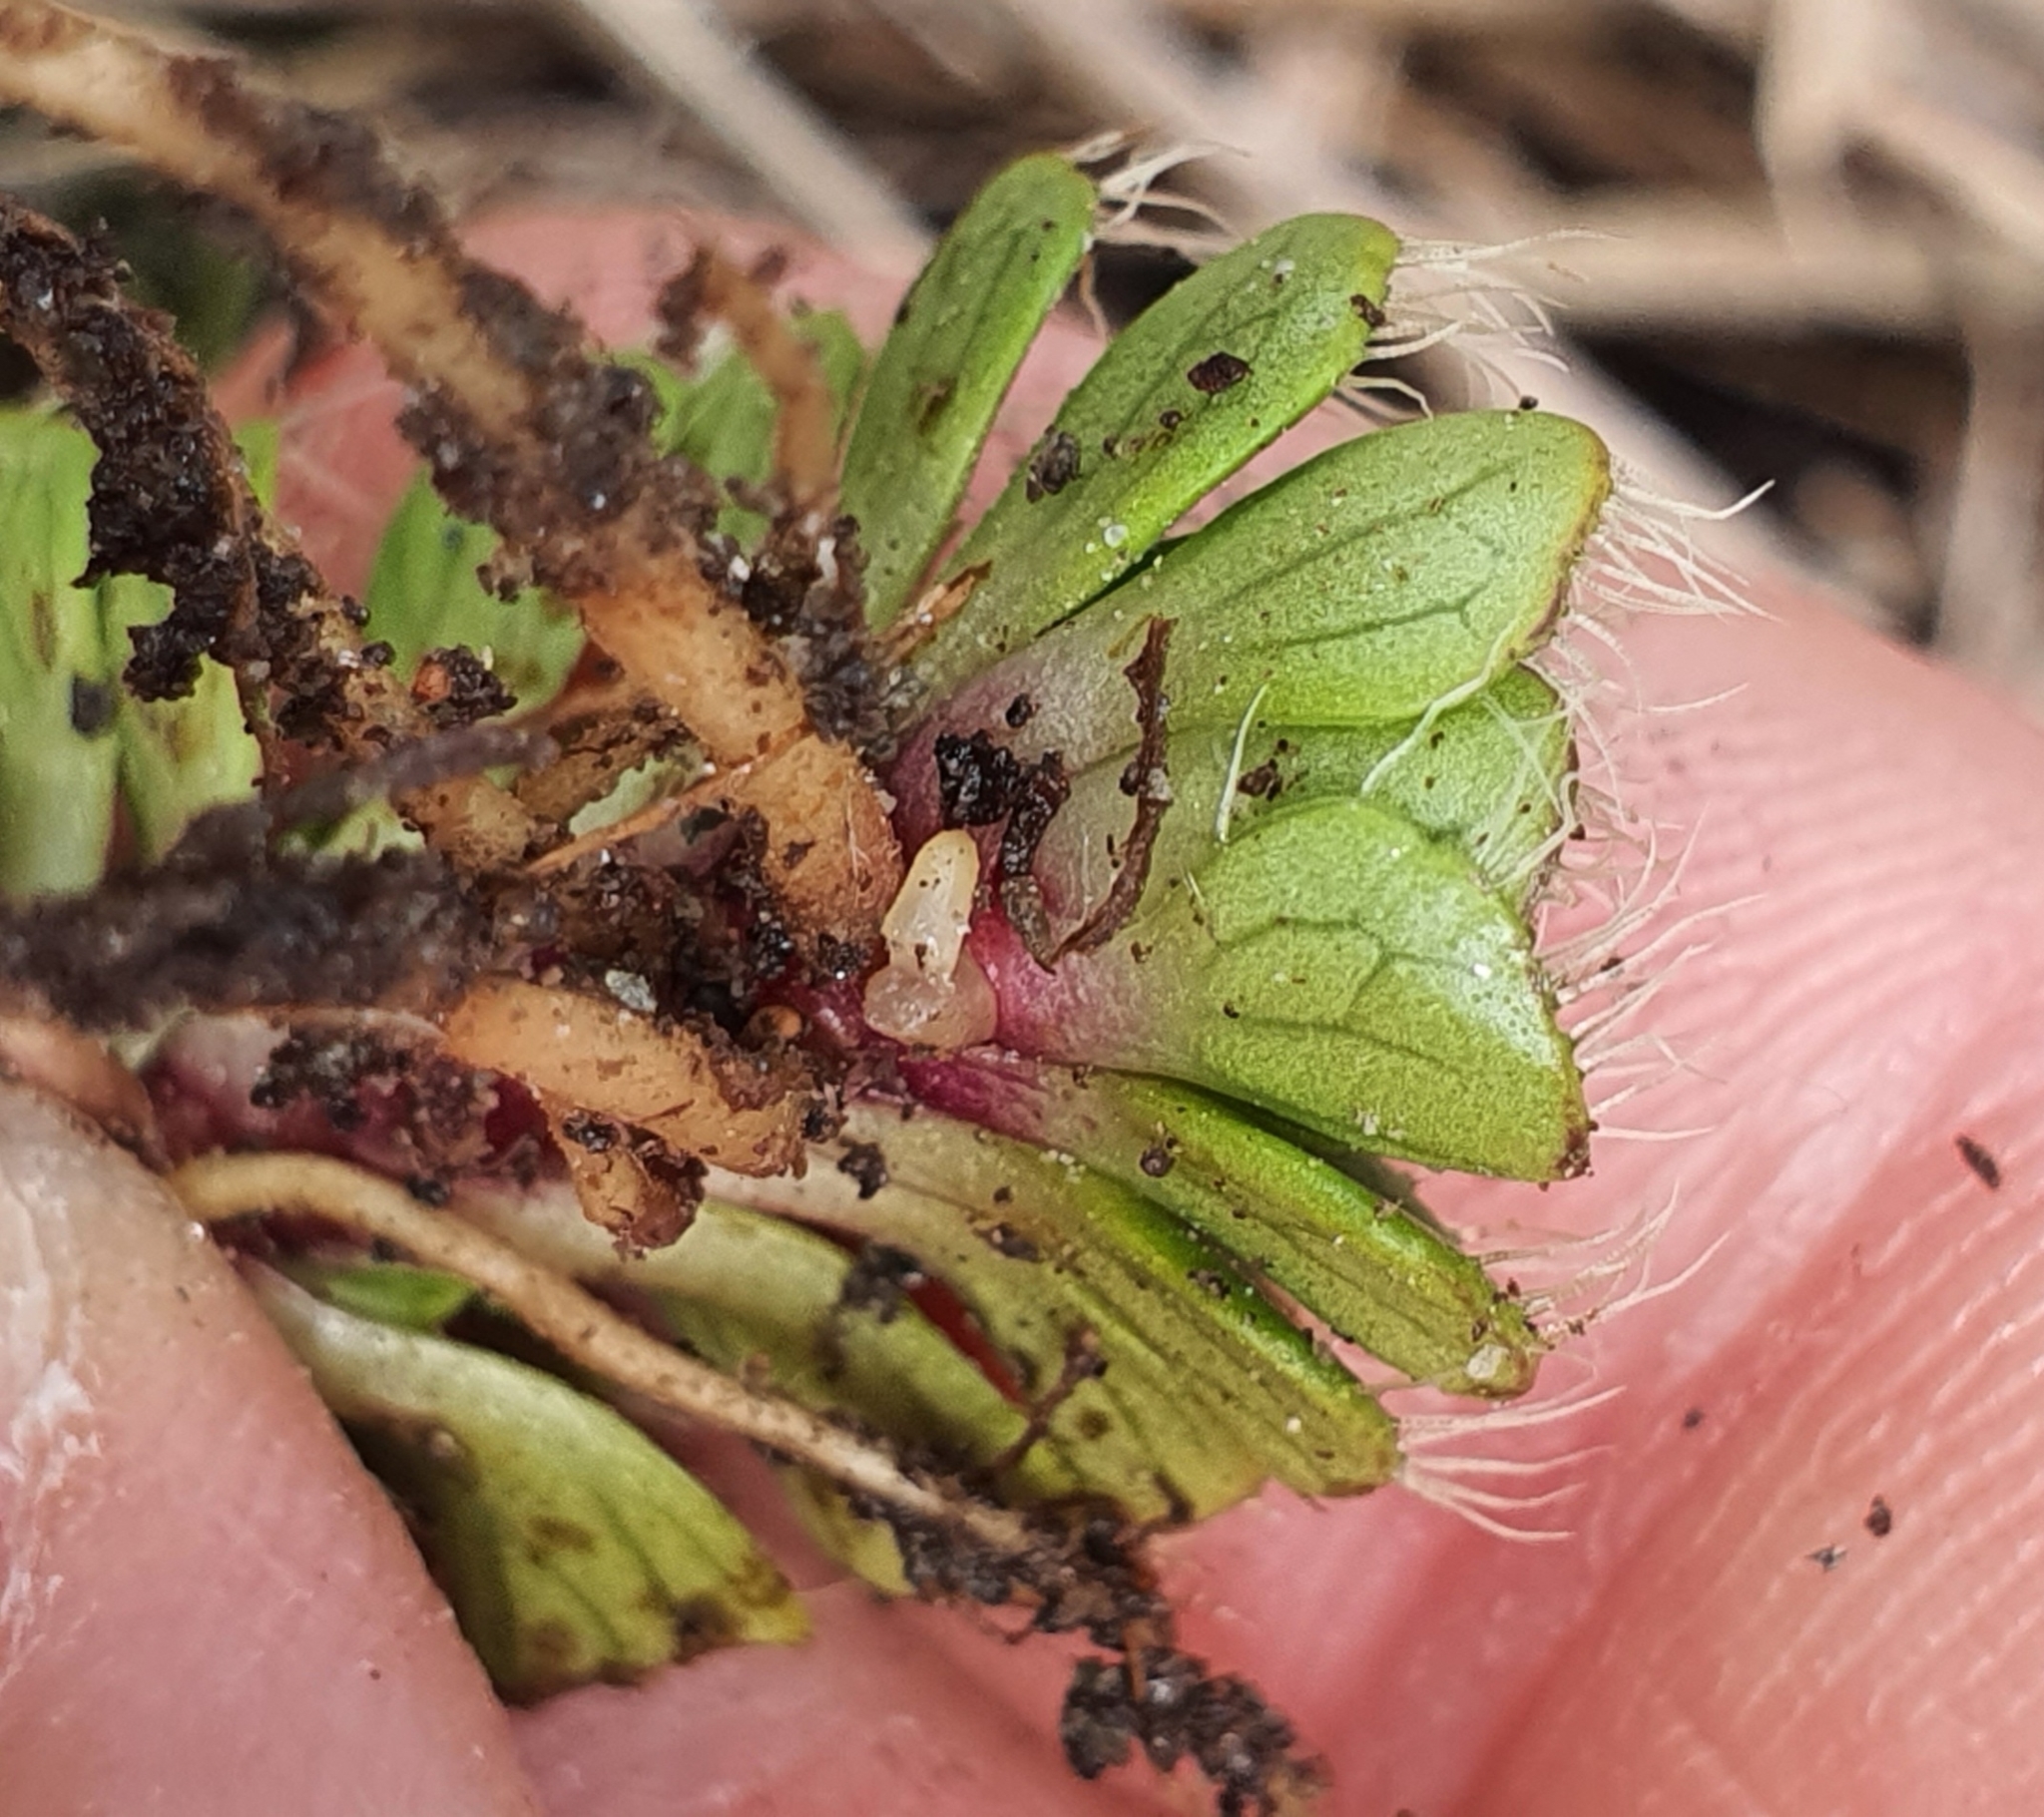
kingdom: Plantae
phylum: Tracheophyta
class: Magnoliopsida
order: Lamiales
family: Plantaginaceae
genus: Ourisia
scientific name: Ourisia glandulosa
